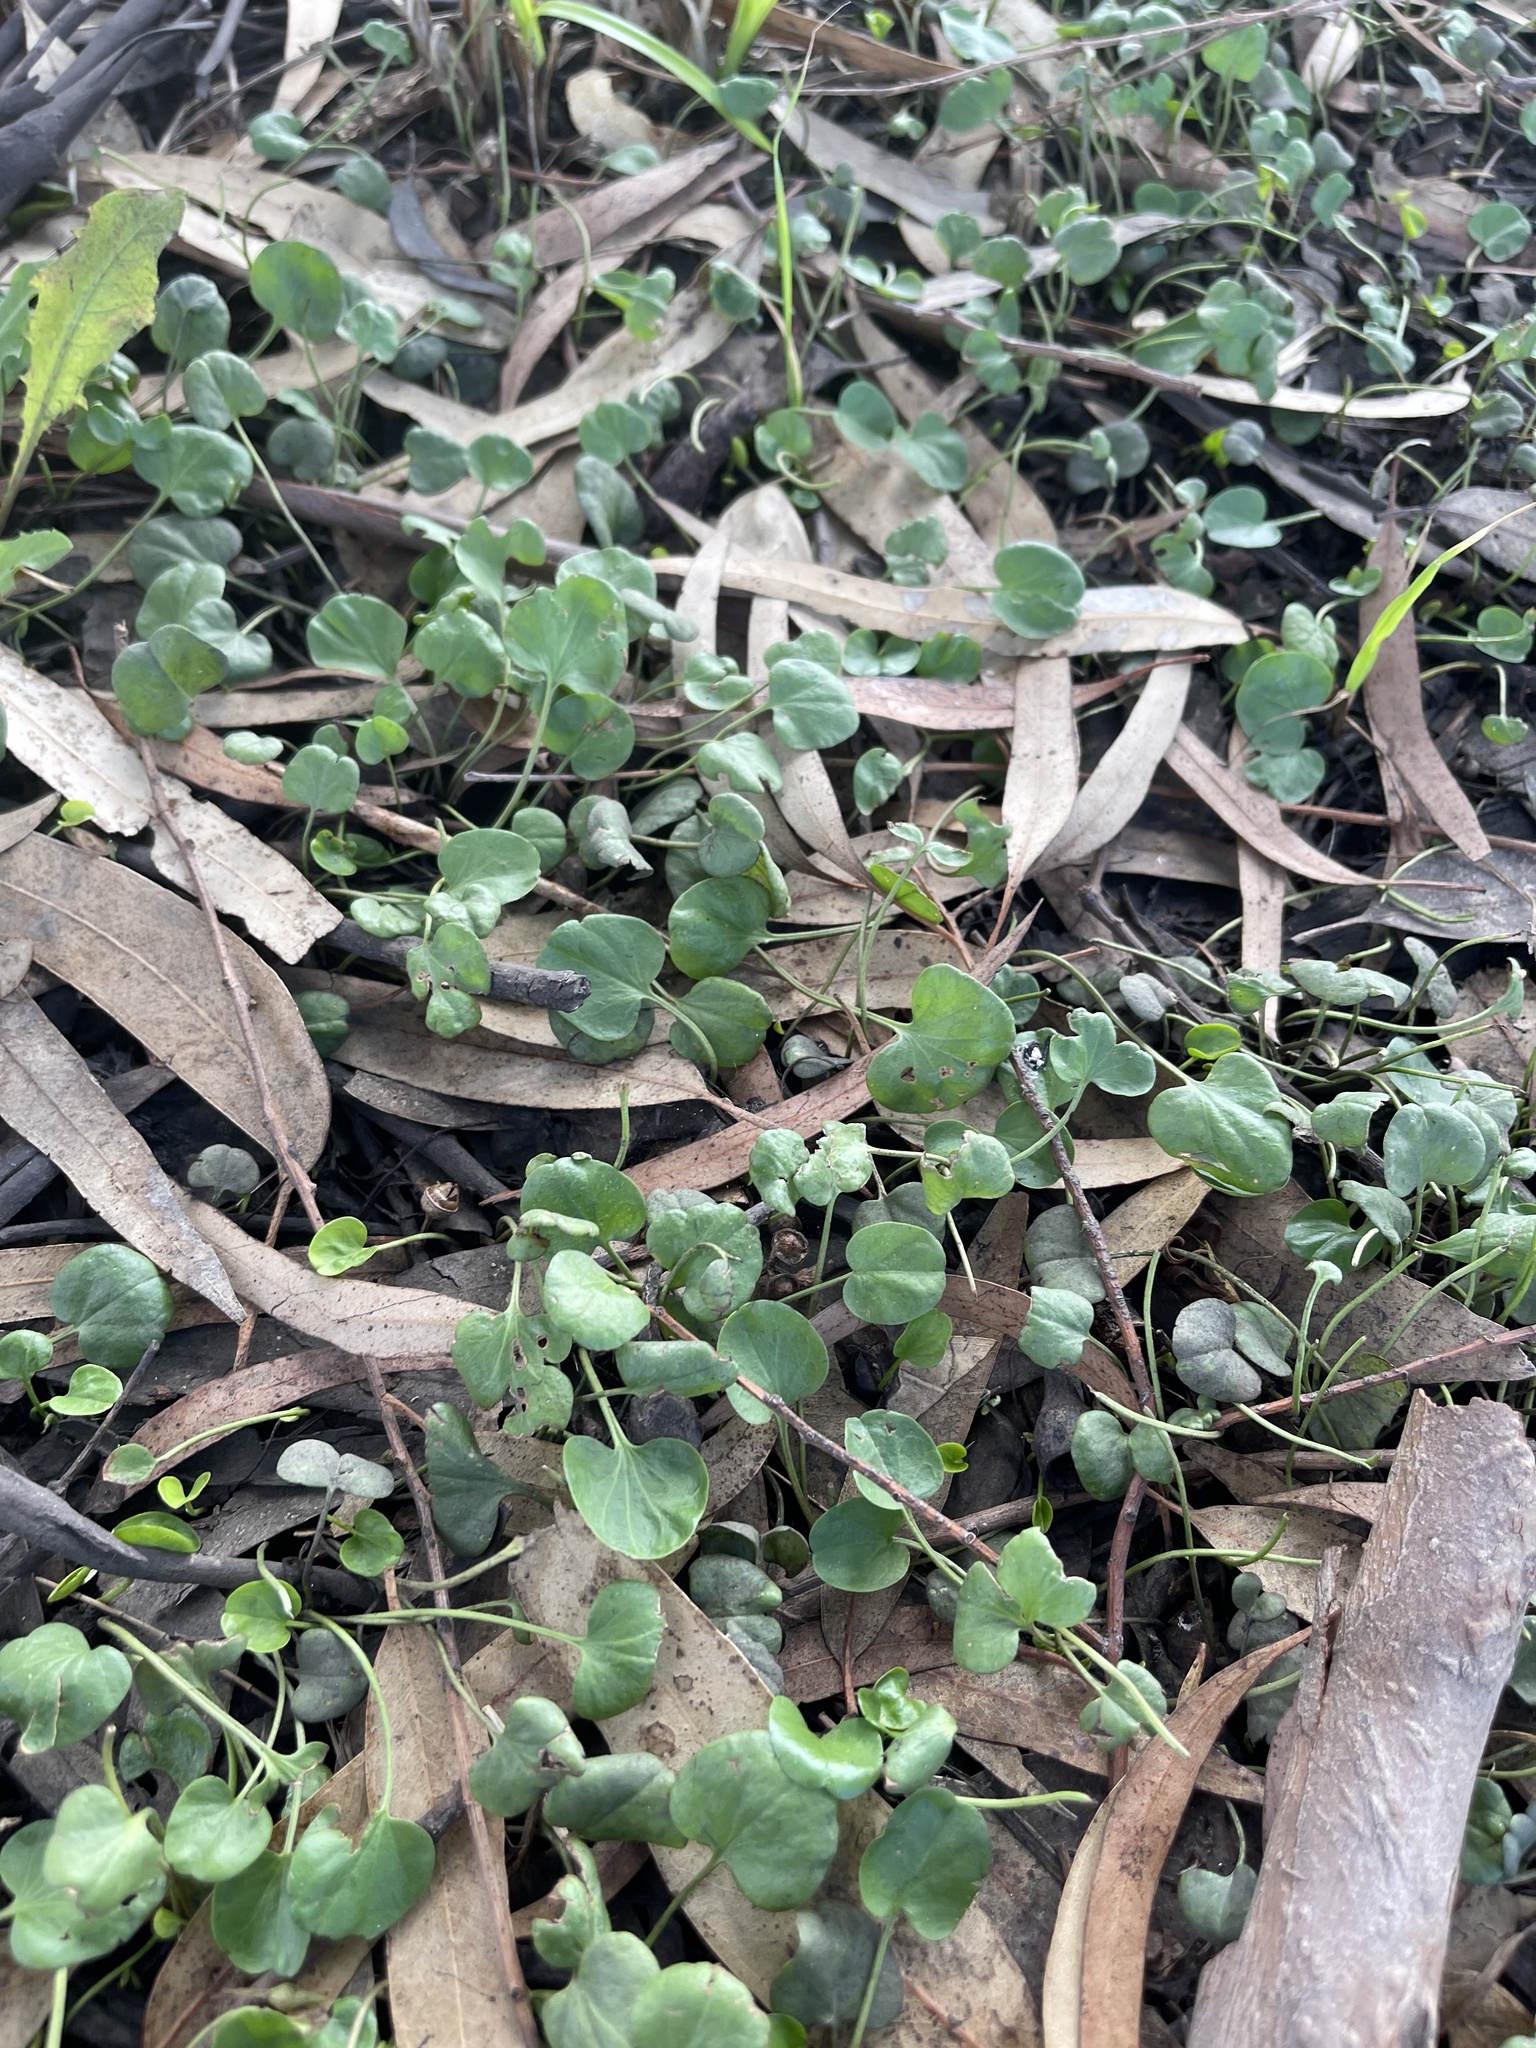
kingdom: Plantae
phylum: Tracheophyta
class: Magnoliopsida
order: Solanales
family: Convolvulaceae
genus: Dichondra
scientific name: Dichondra repens
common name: Kidneyweed
